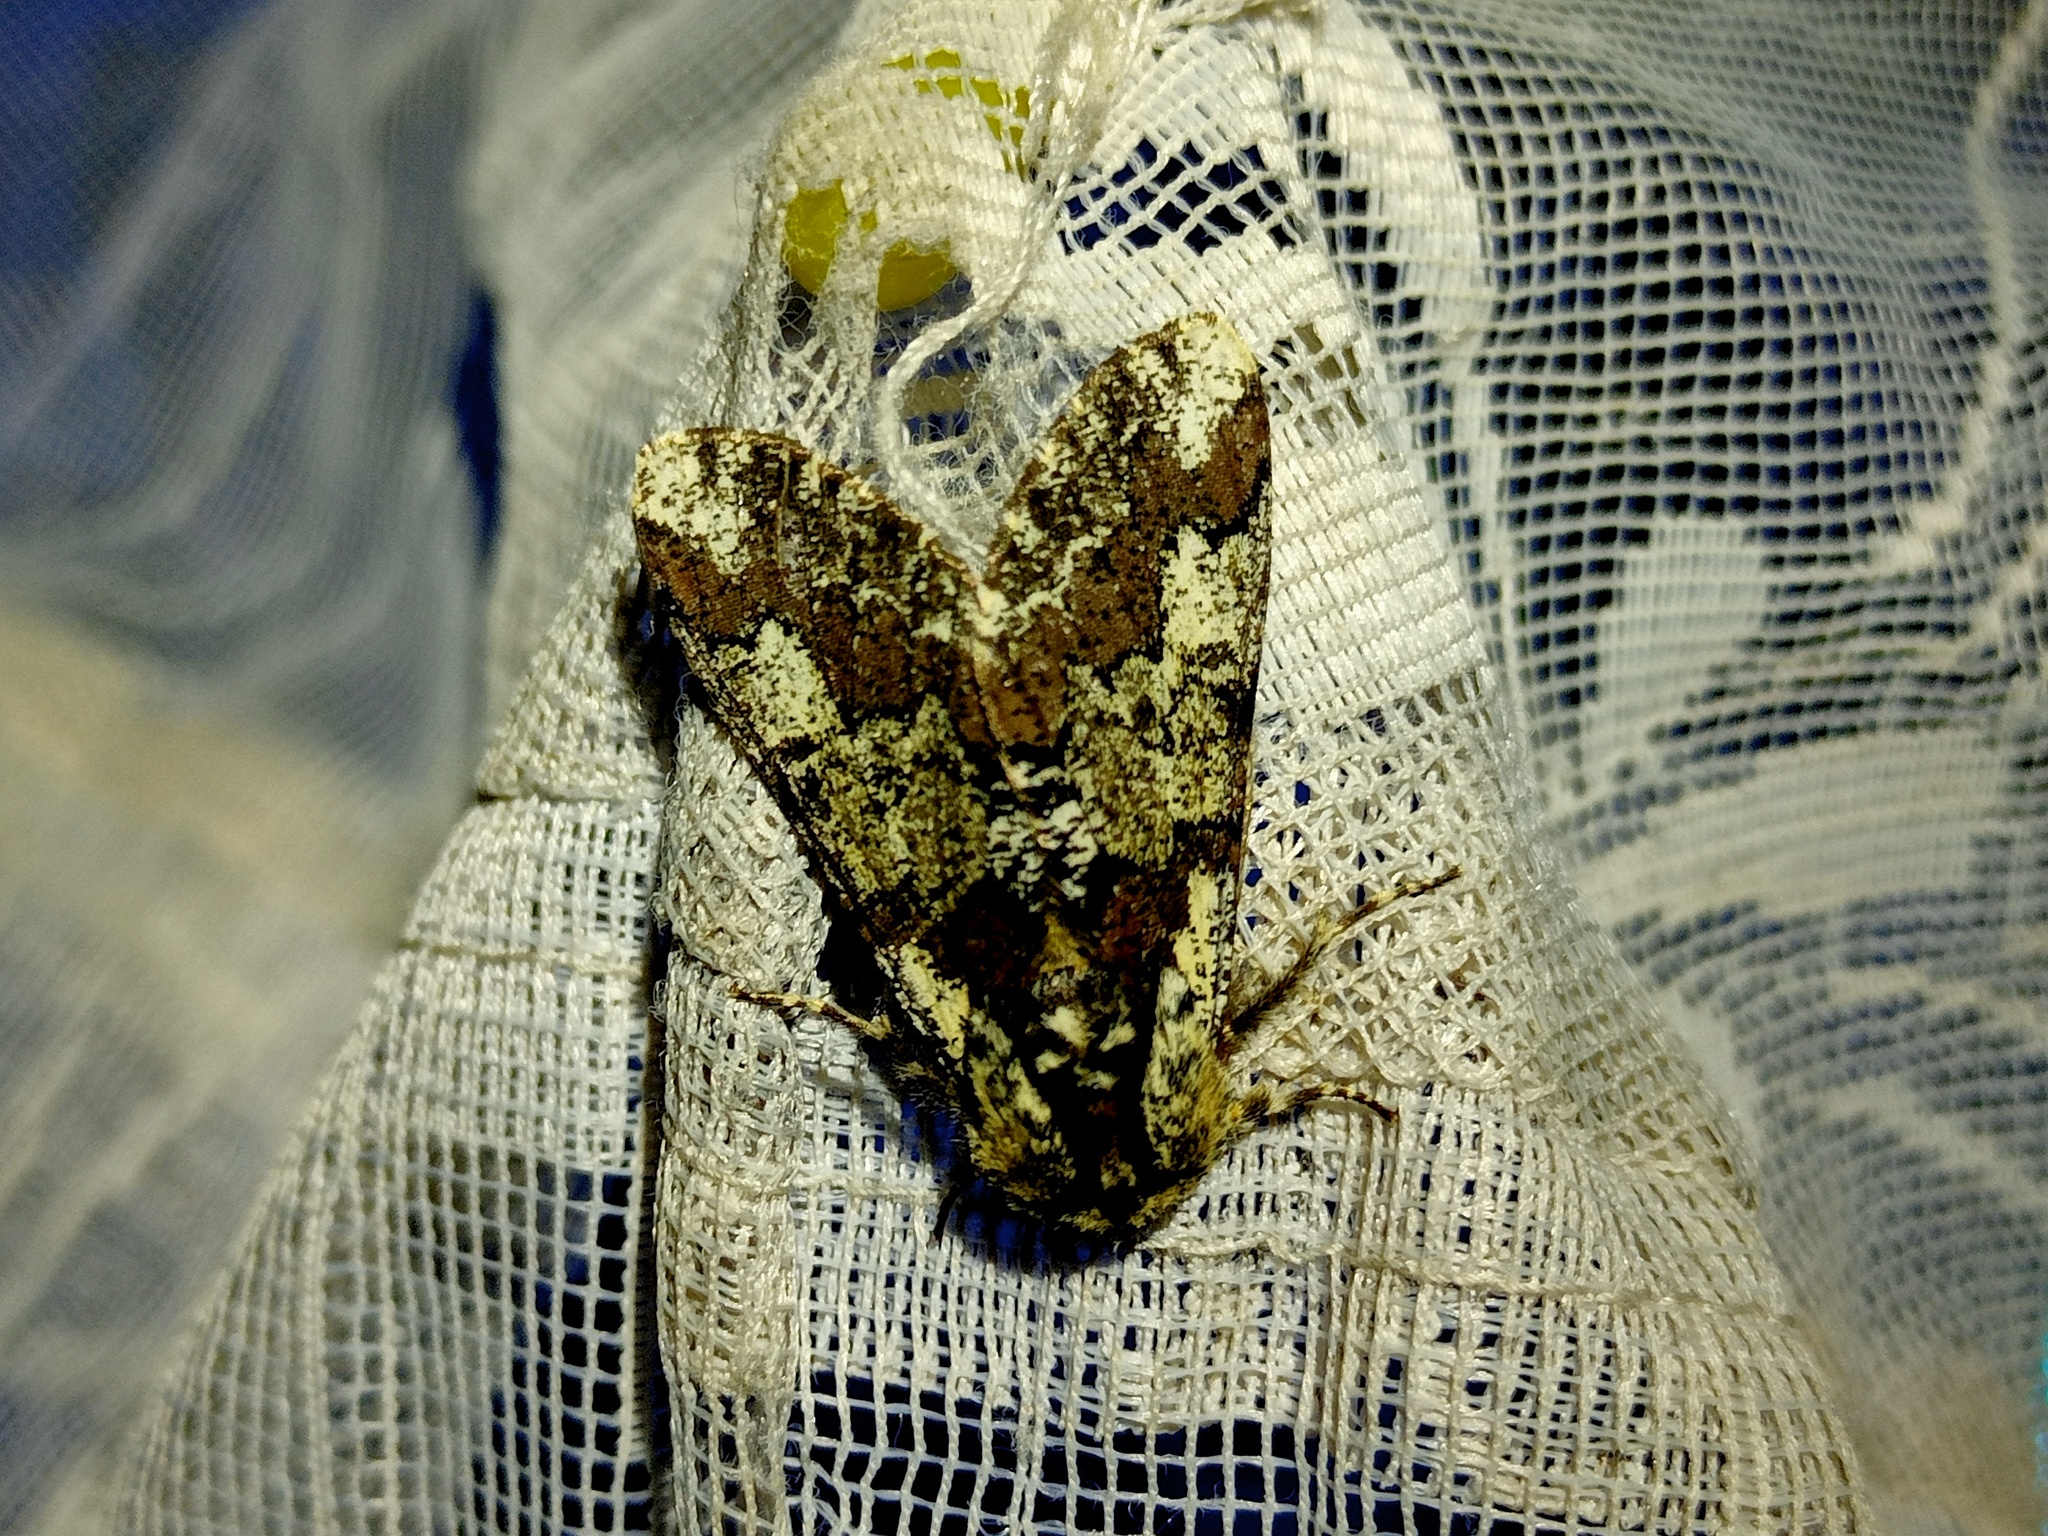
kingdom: Animalia
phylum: Arthropoda
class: Insecta
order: Lepidoptera
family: Geometridae
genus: Biston
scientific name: Biston strataria
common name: Oak beauty
